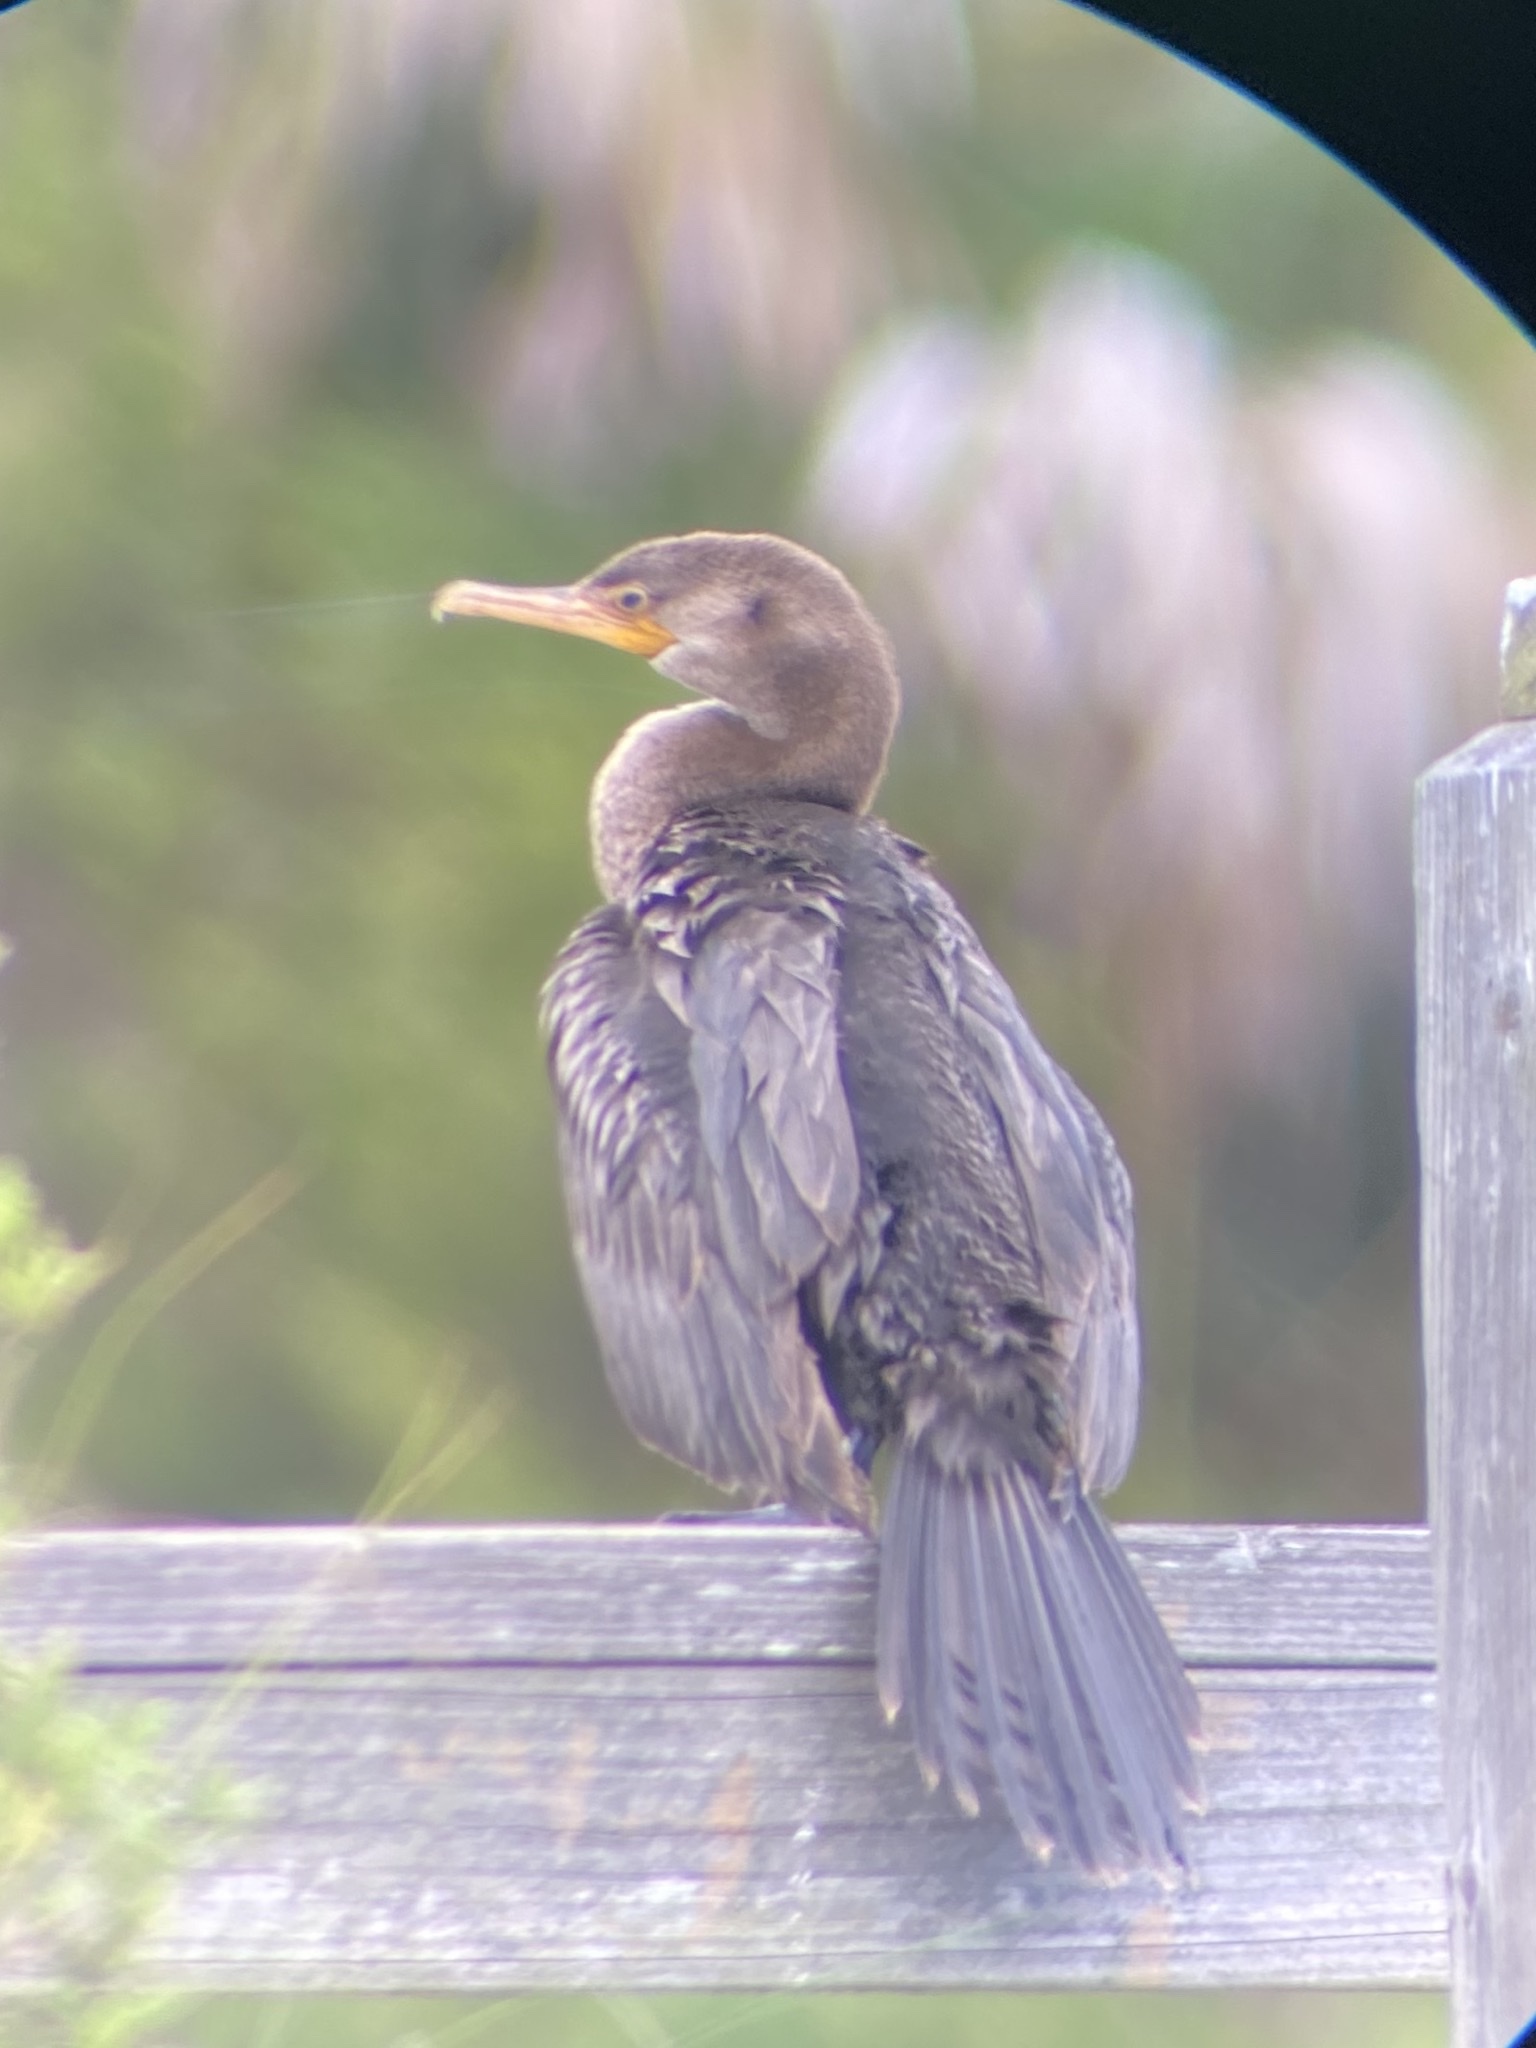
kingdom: Animalia
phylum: Chordata
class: Aves
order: Suliformes
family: Phalacrocoracidae
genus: Phalacrocorax
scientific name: Phalacrocorax brasilianus
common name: Neotropic cormorant
